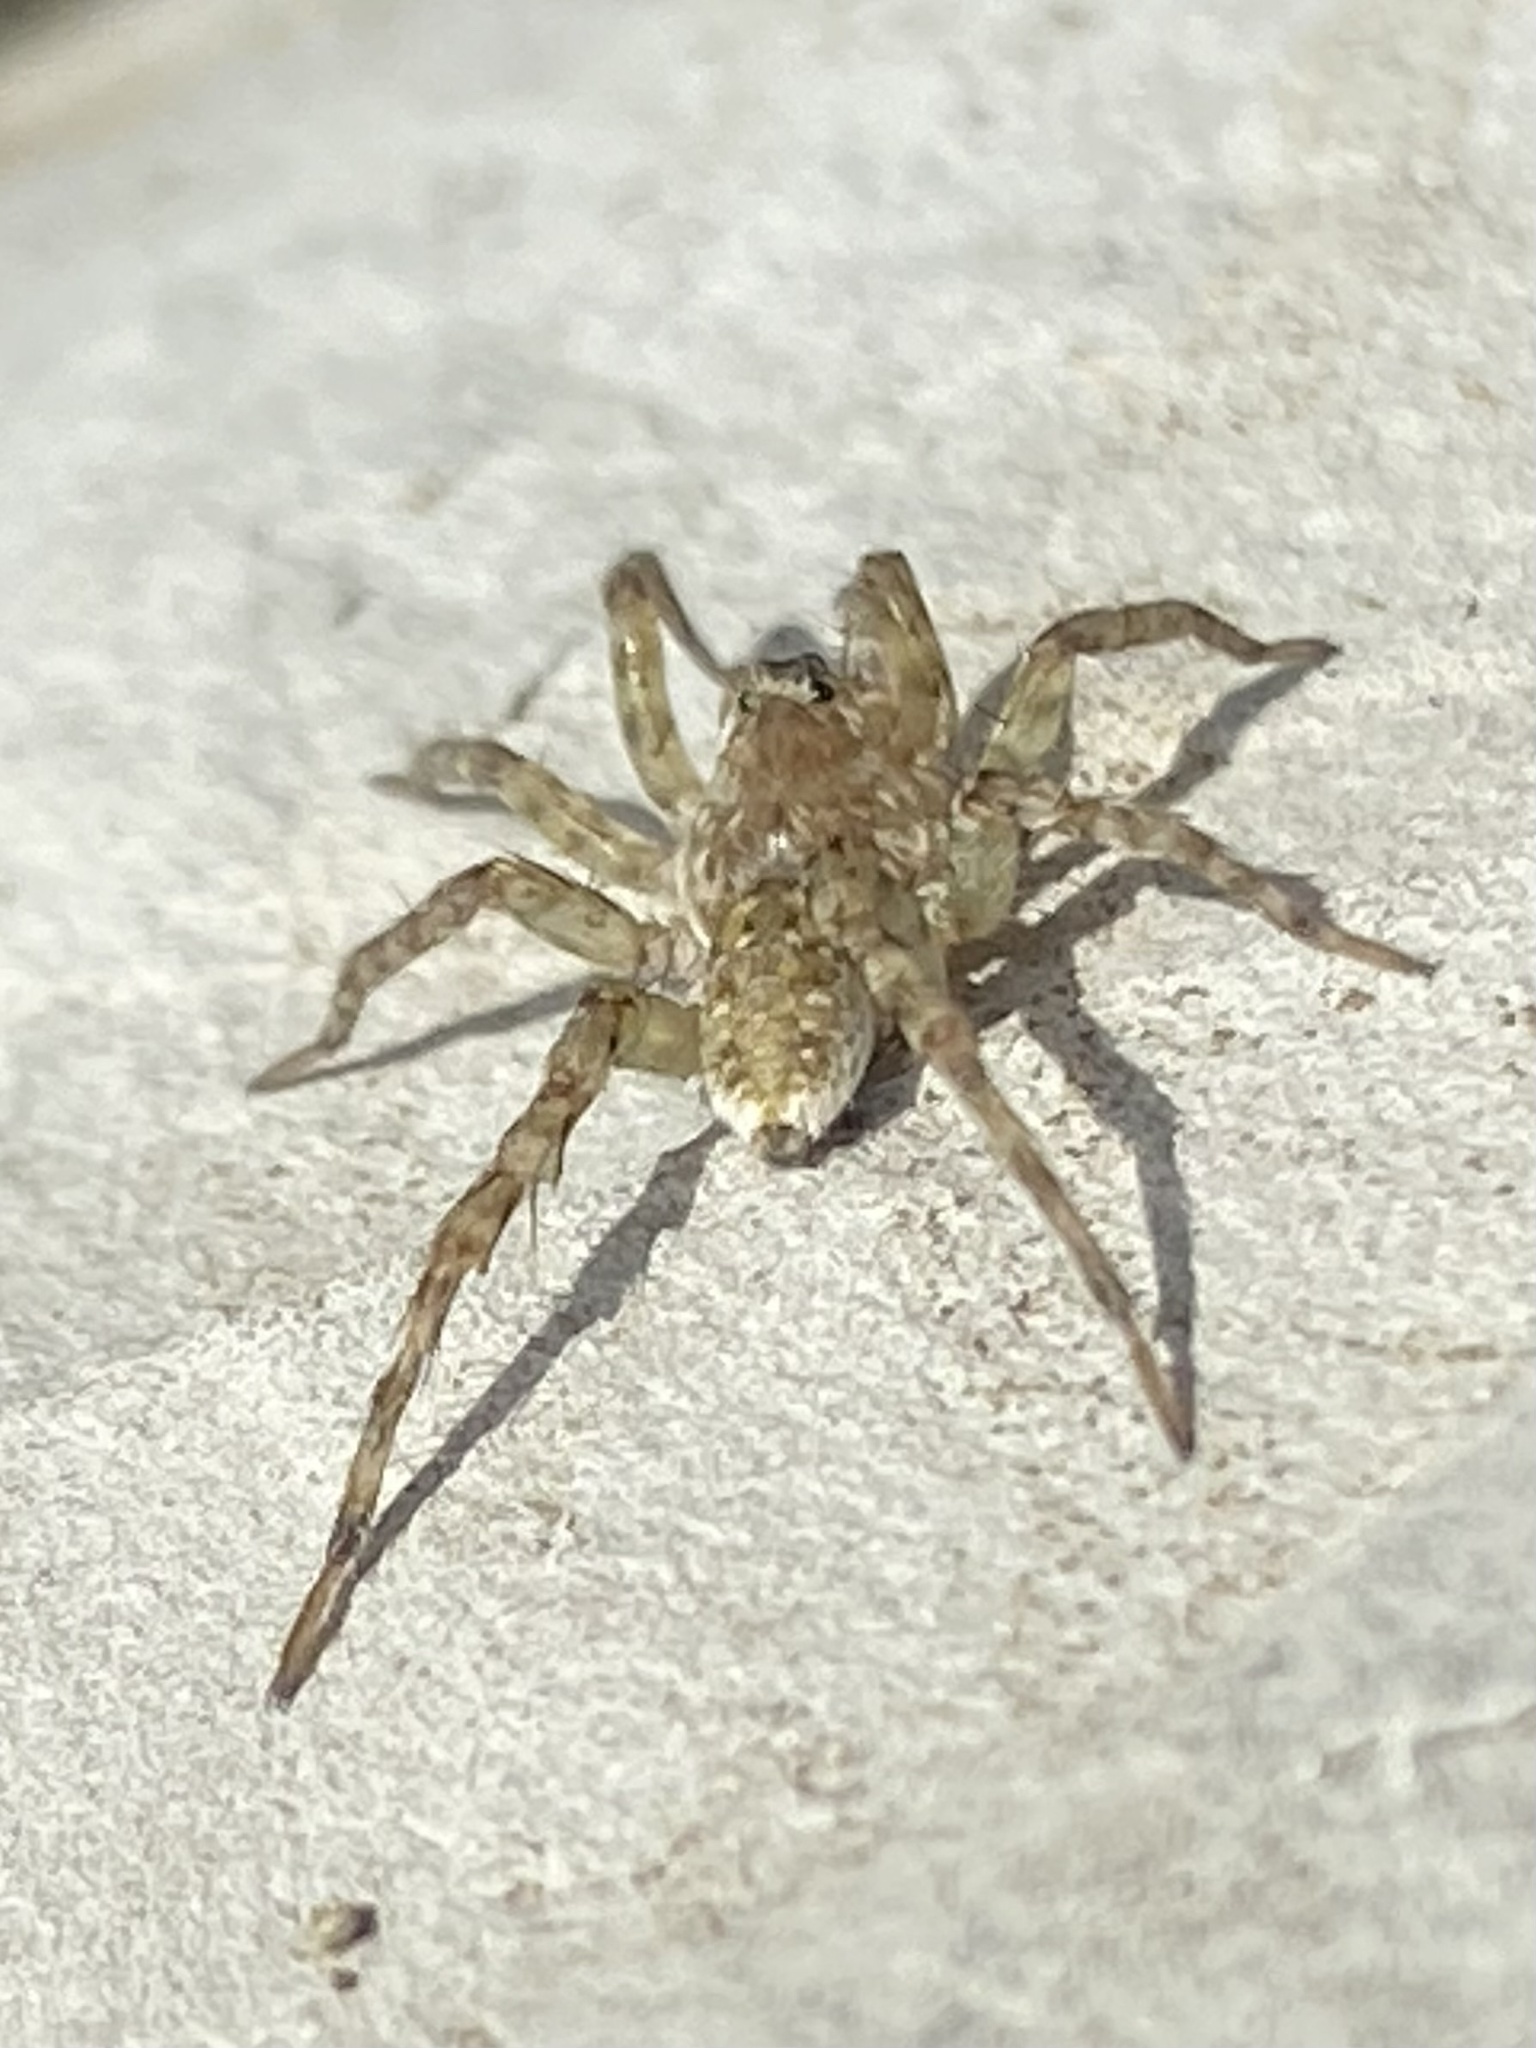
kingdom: Animalia
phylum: Arthropoda
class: Arachnida
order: Araneae
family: Lycosidae
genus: Arctosa
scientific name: Arctosa littoralis
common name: Wolf spiders
